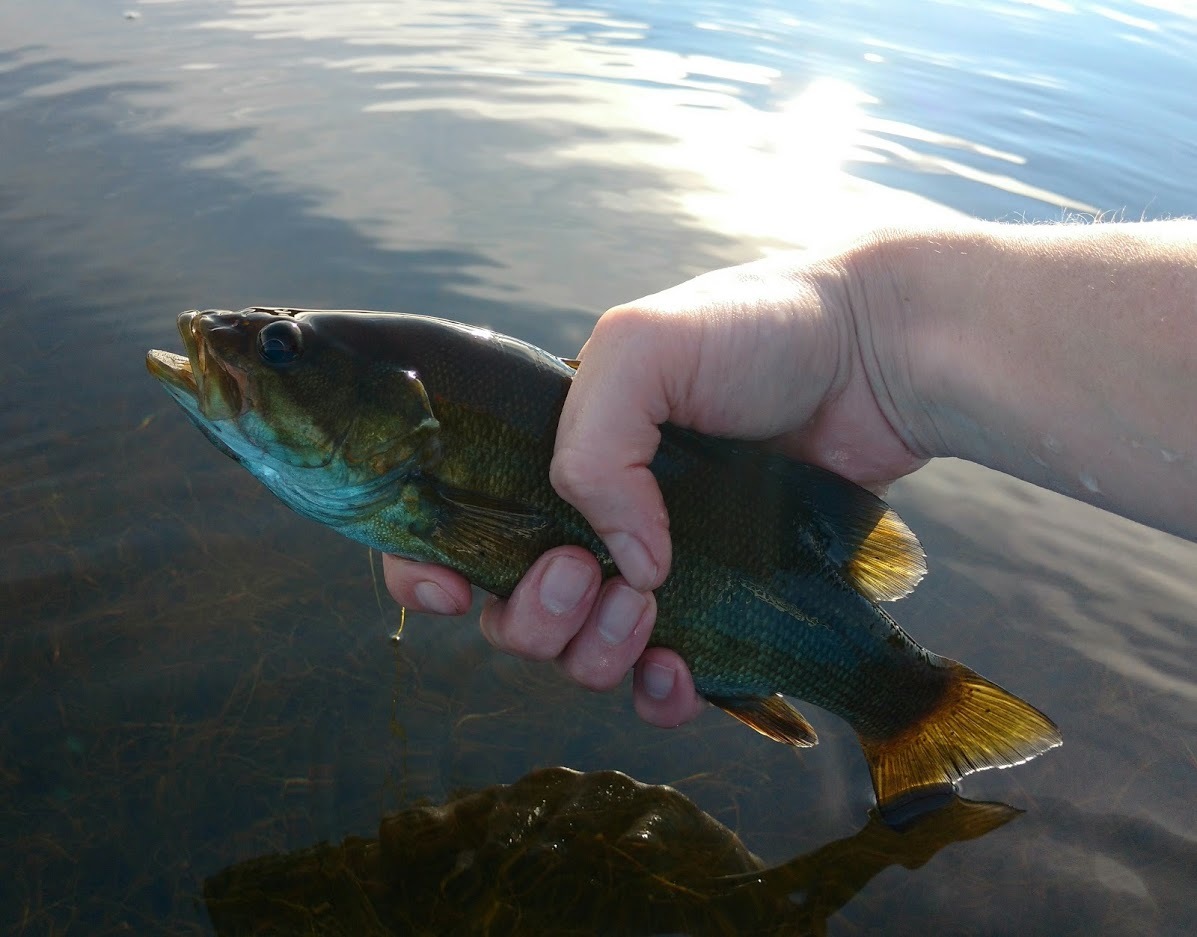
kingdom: Animalia
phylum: Chordata
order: Perciformes
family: Centrarchidae
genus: Micropterus
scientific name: Micropterus dolomieu
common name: Smallmouth bass
